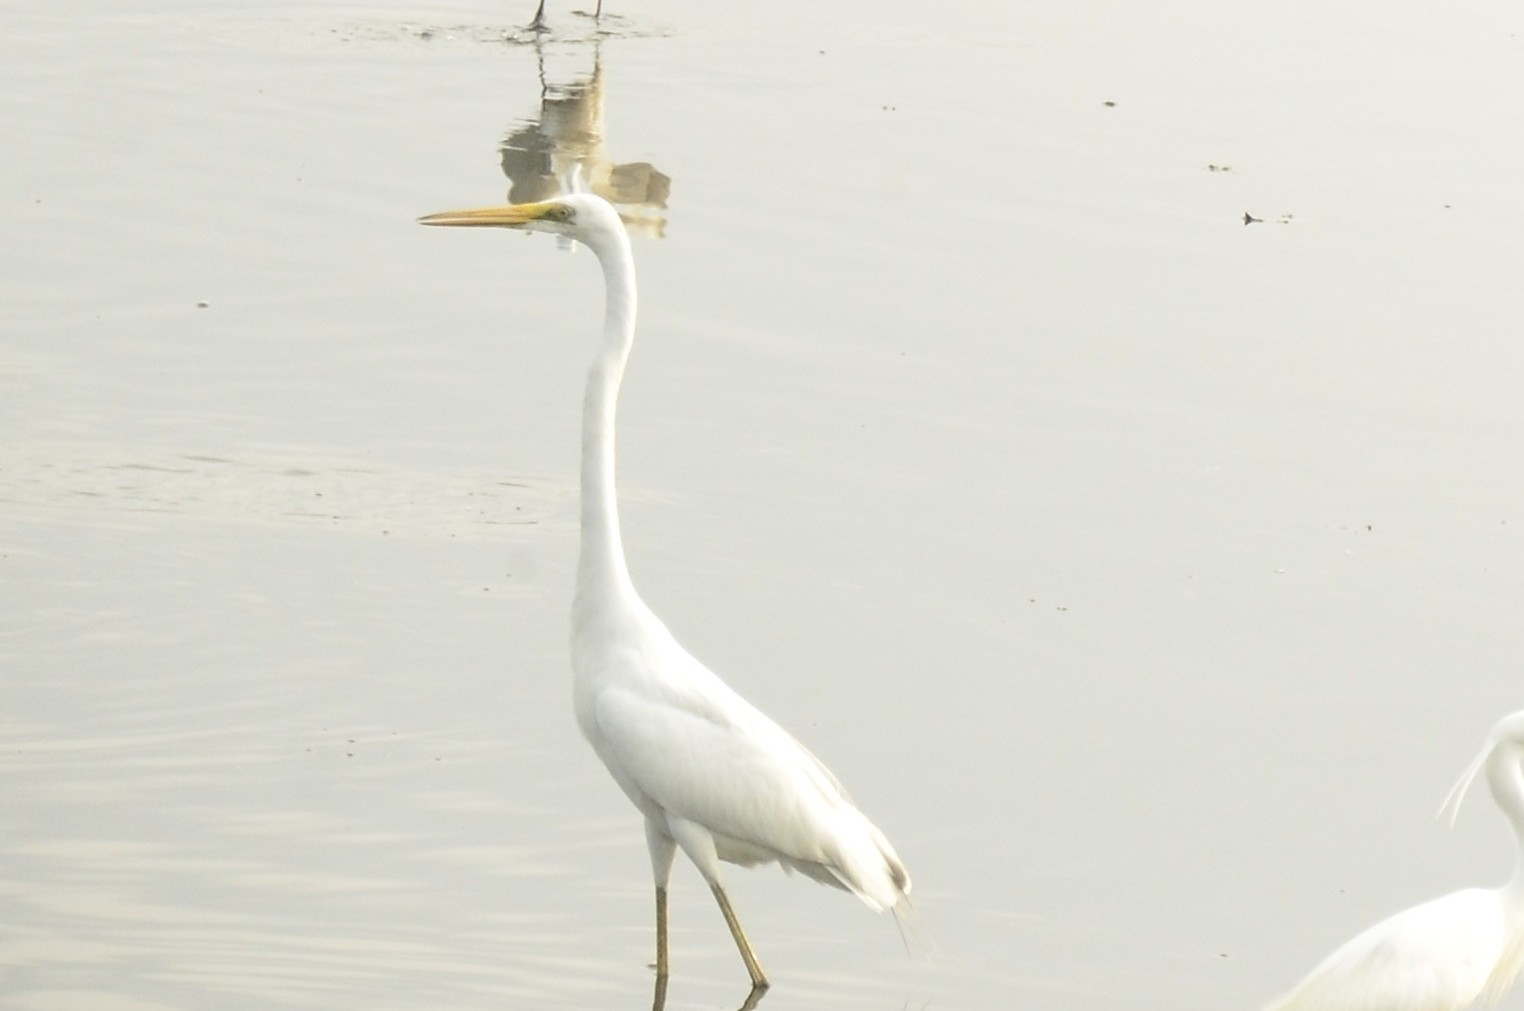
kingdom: Animalia
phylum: Chordata
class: Aves
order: Pelecaniformes
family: Ardeidae
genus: Ardea
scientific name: Ardea alba
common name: Great egret
